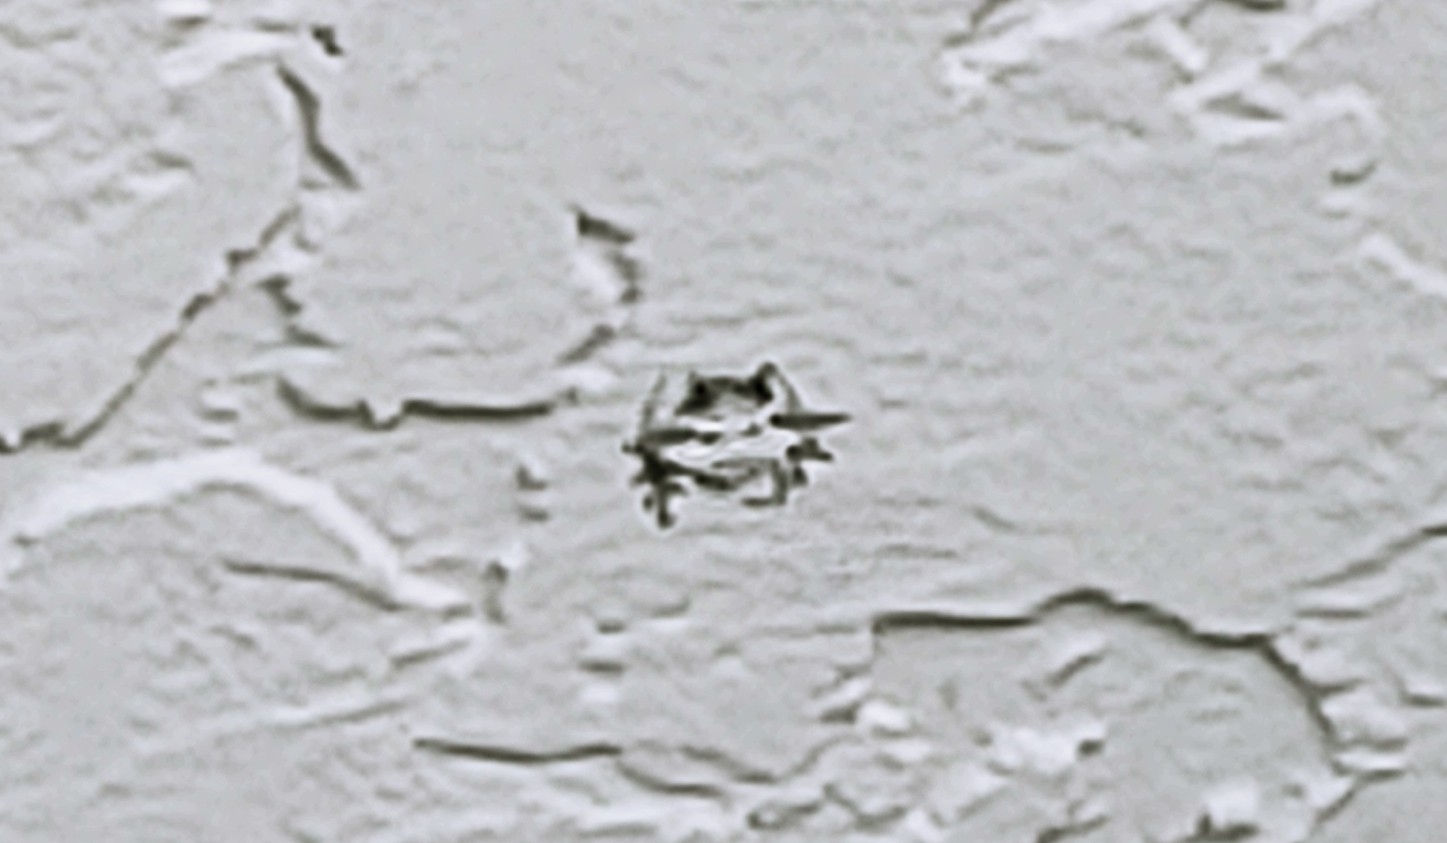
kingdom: Animalia
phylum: Arthropoda
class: Arachnida
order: Araneae
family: Araneidae
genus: Gasteracantha
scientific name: Gasteracantha cancriformis
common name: Orb weavers
